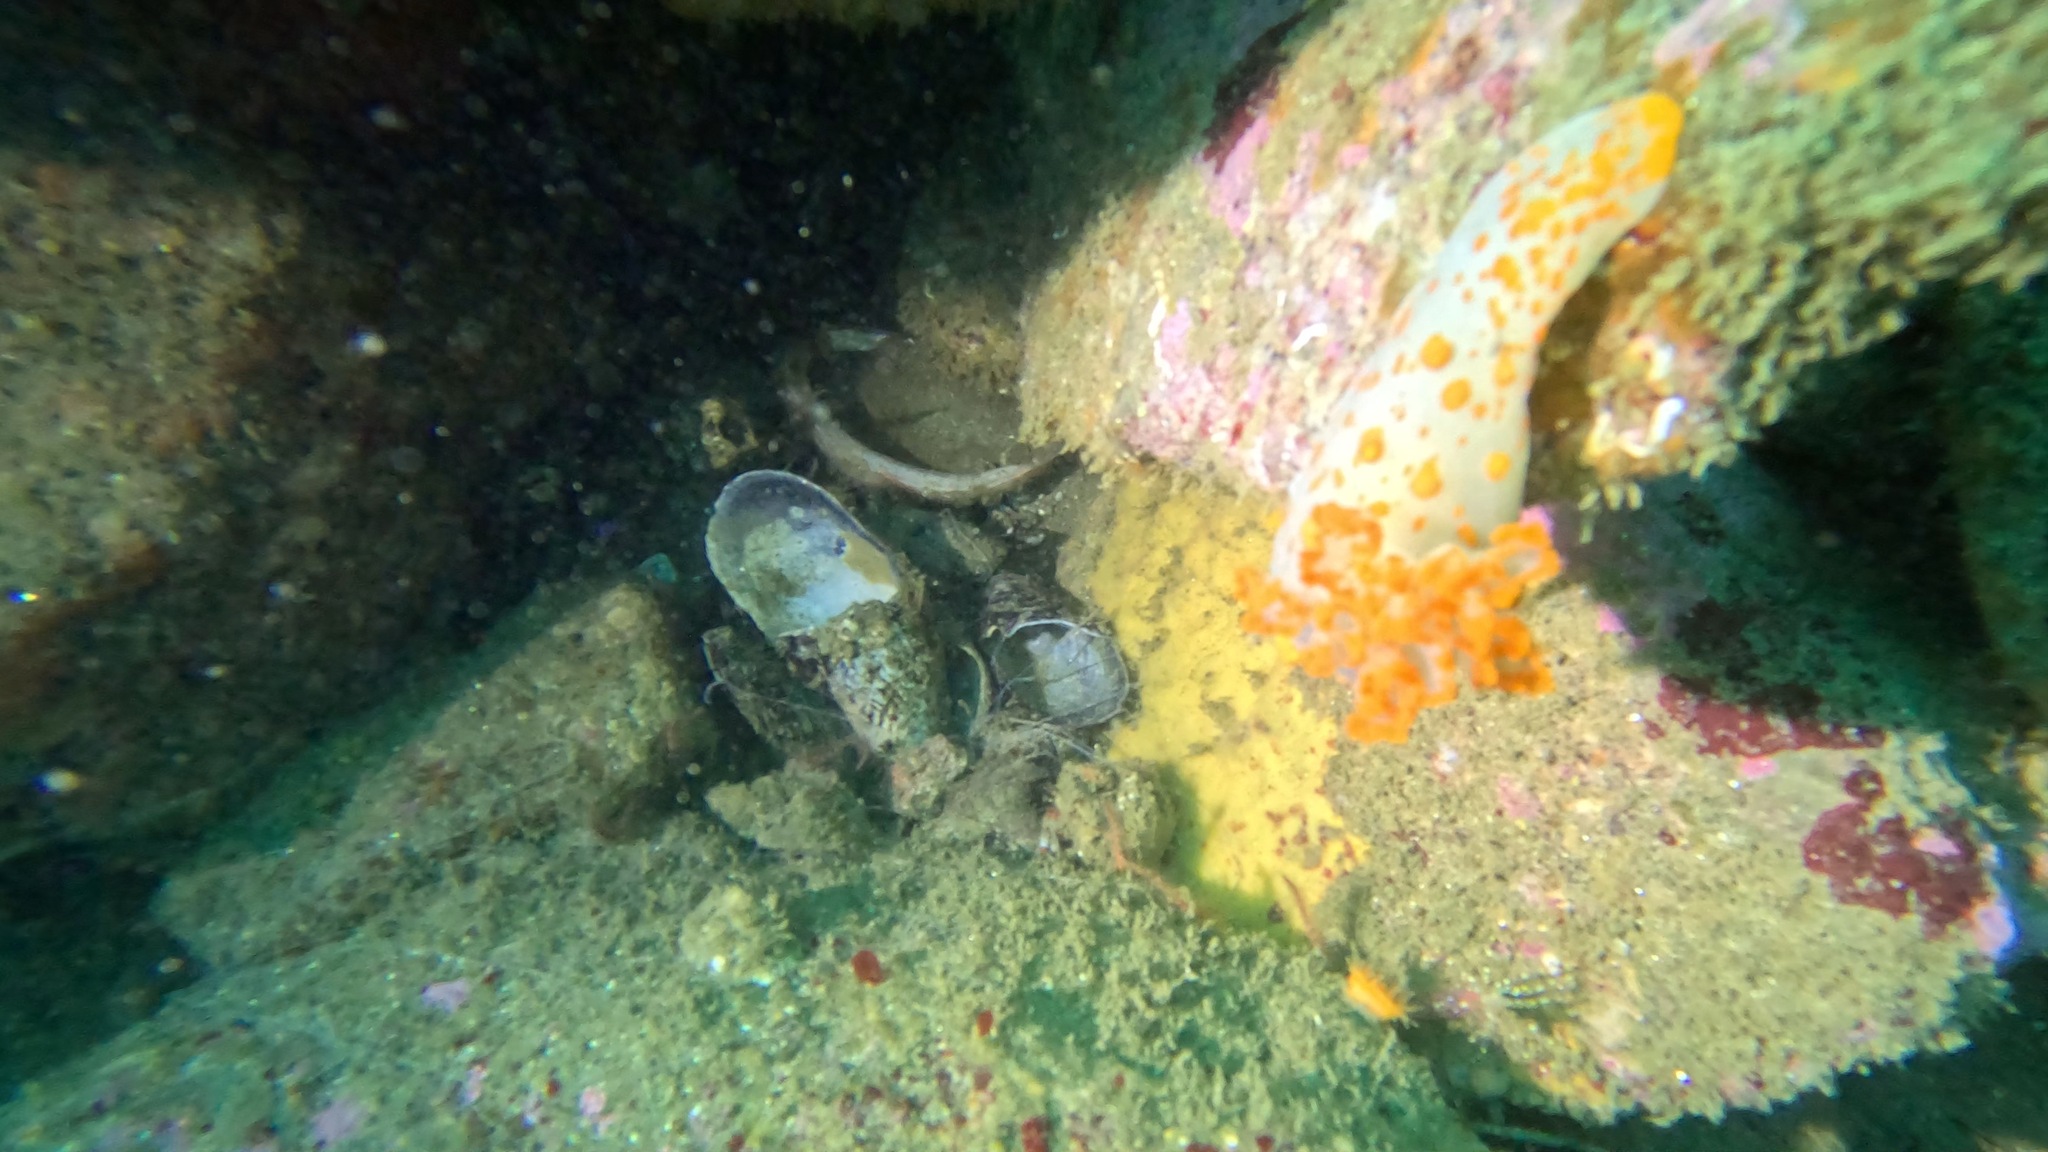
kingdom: Animalia
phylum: Mollusca
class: Gastropoda
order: Nudibranchia
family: Polyceridae
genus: Triopha
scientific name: Triopha catalinae
